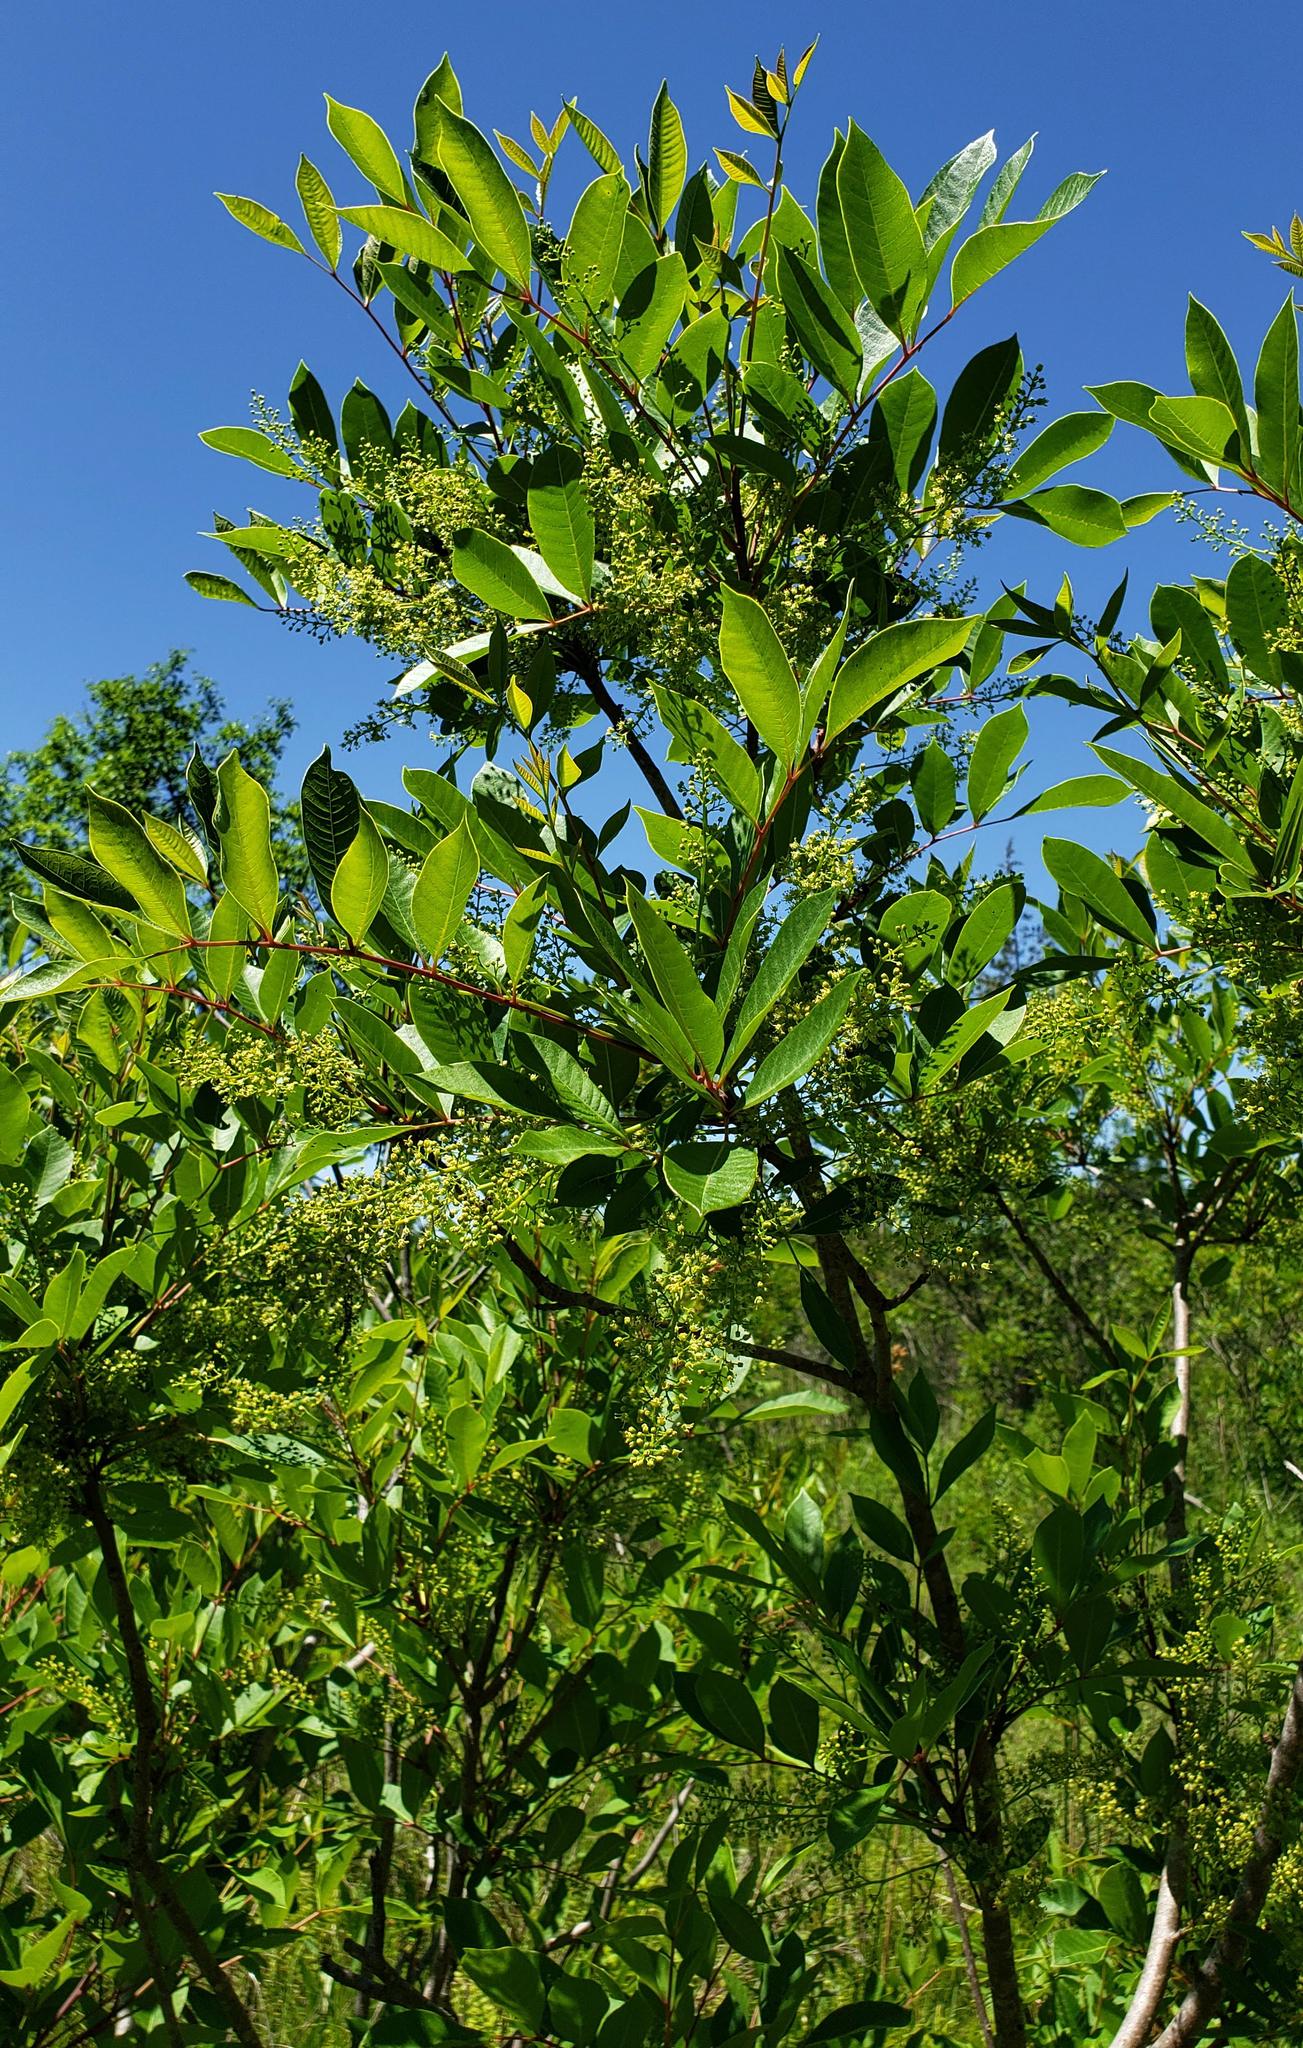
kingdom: Plantae
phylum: Tracheophyta
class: Magnoliopsida
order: Sapindales
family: Anacardiaceae
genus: Toxicodendron
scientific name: Toxicodendron vernix
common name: Poison sumac
